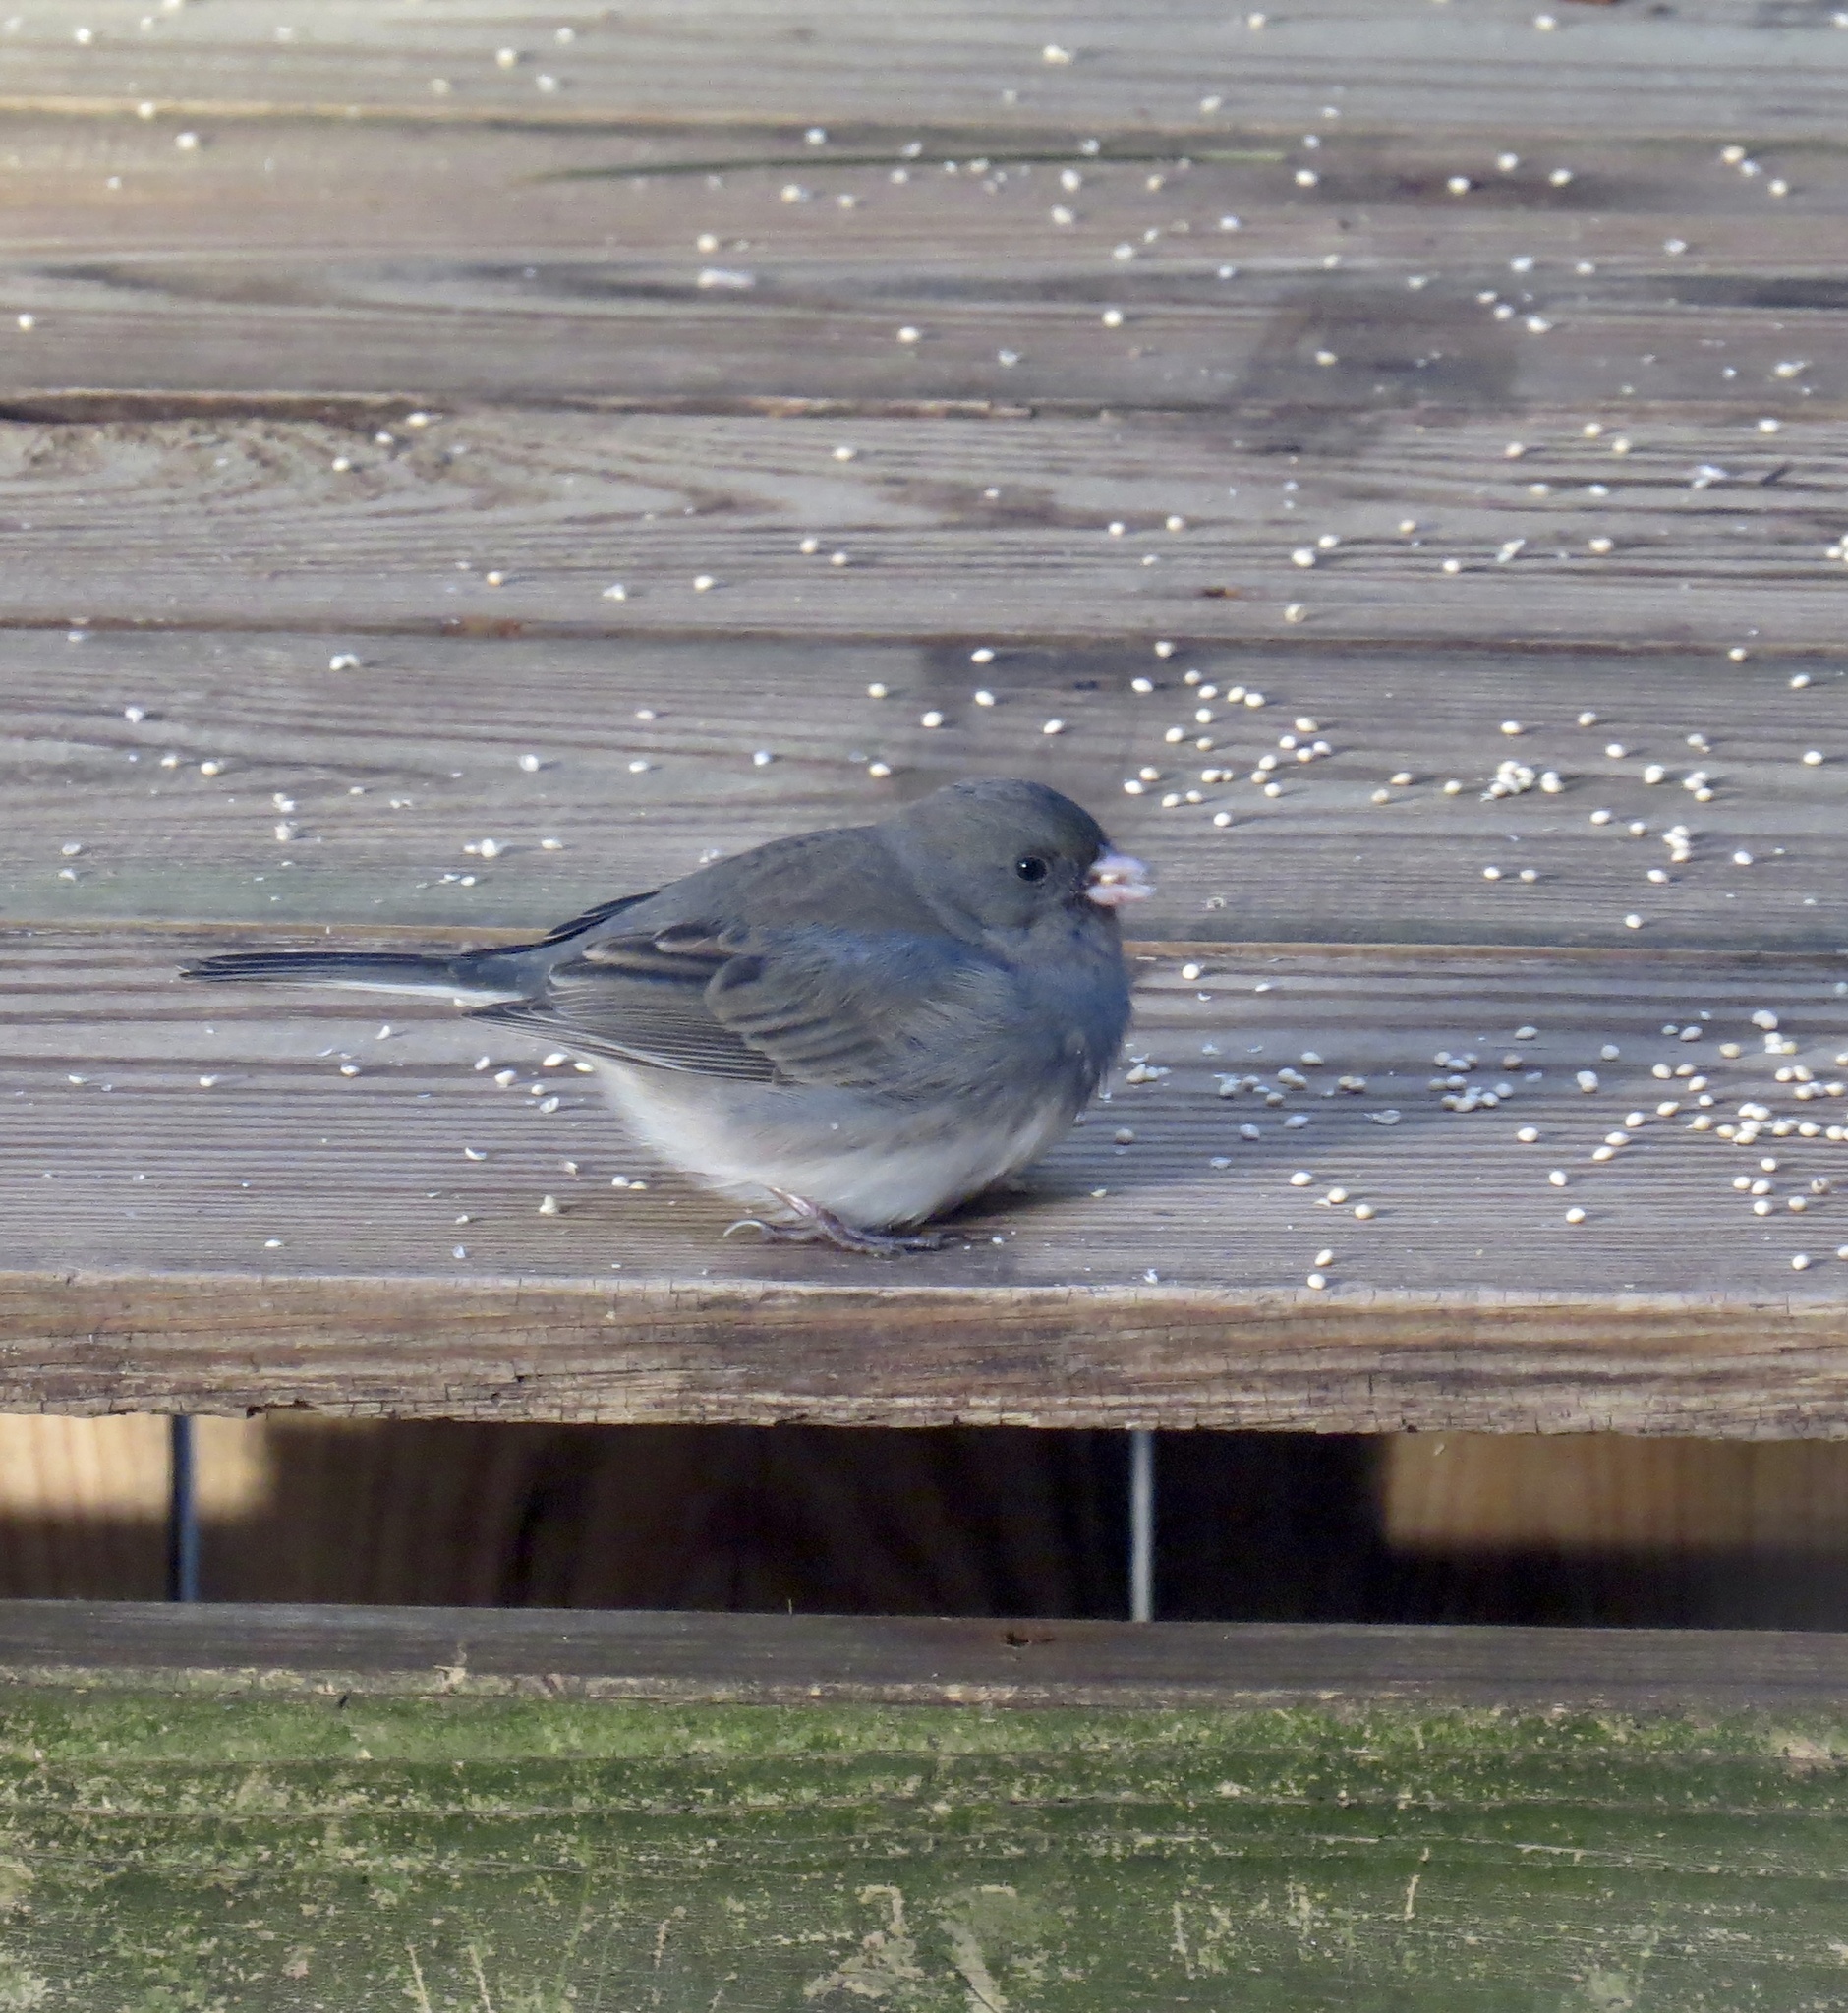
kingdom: Animalia
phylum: Chordata
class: Aves
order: Passeriformes
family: Passerellidae
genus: Junco
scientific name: Junco hyemalis
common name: Dark-eyed junco
